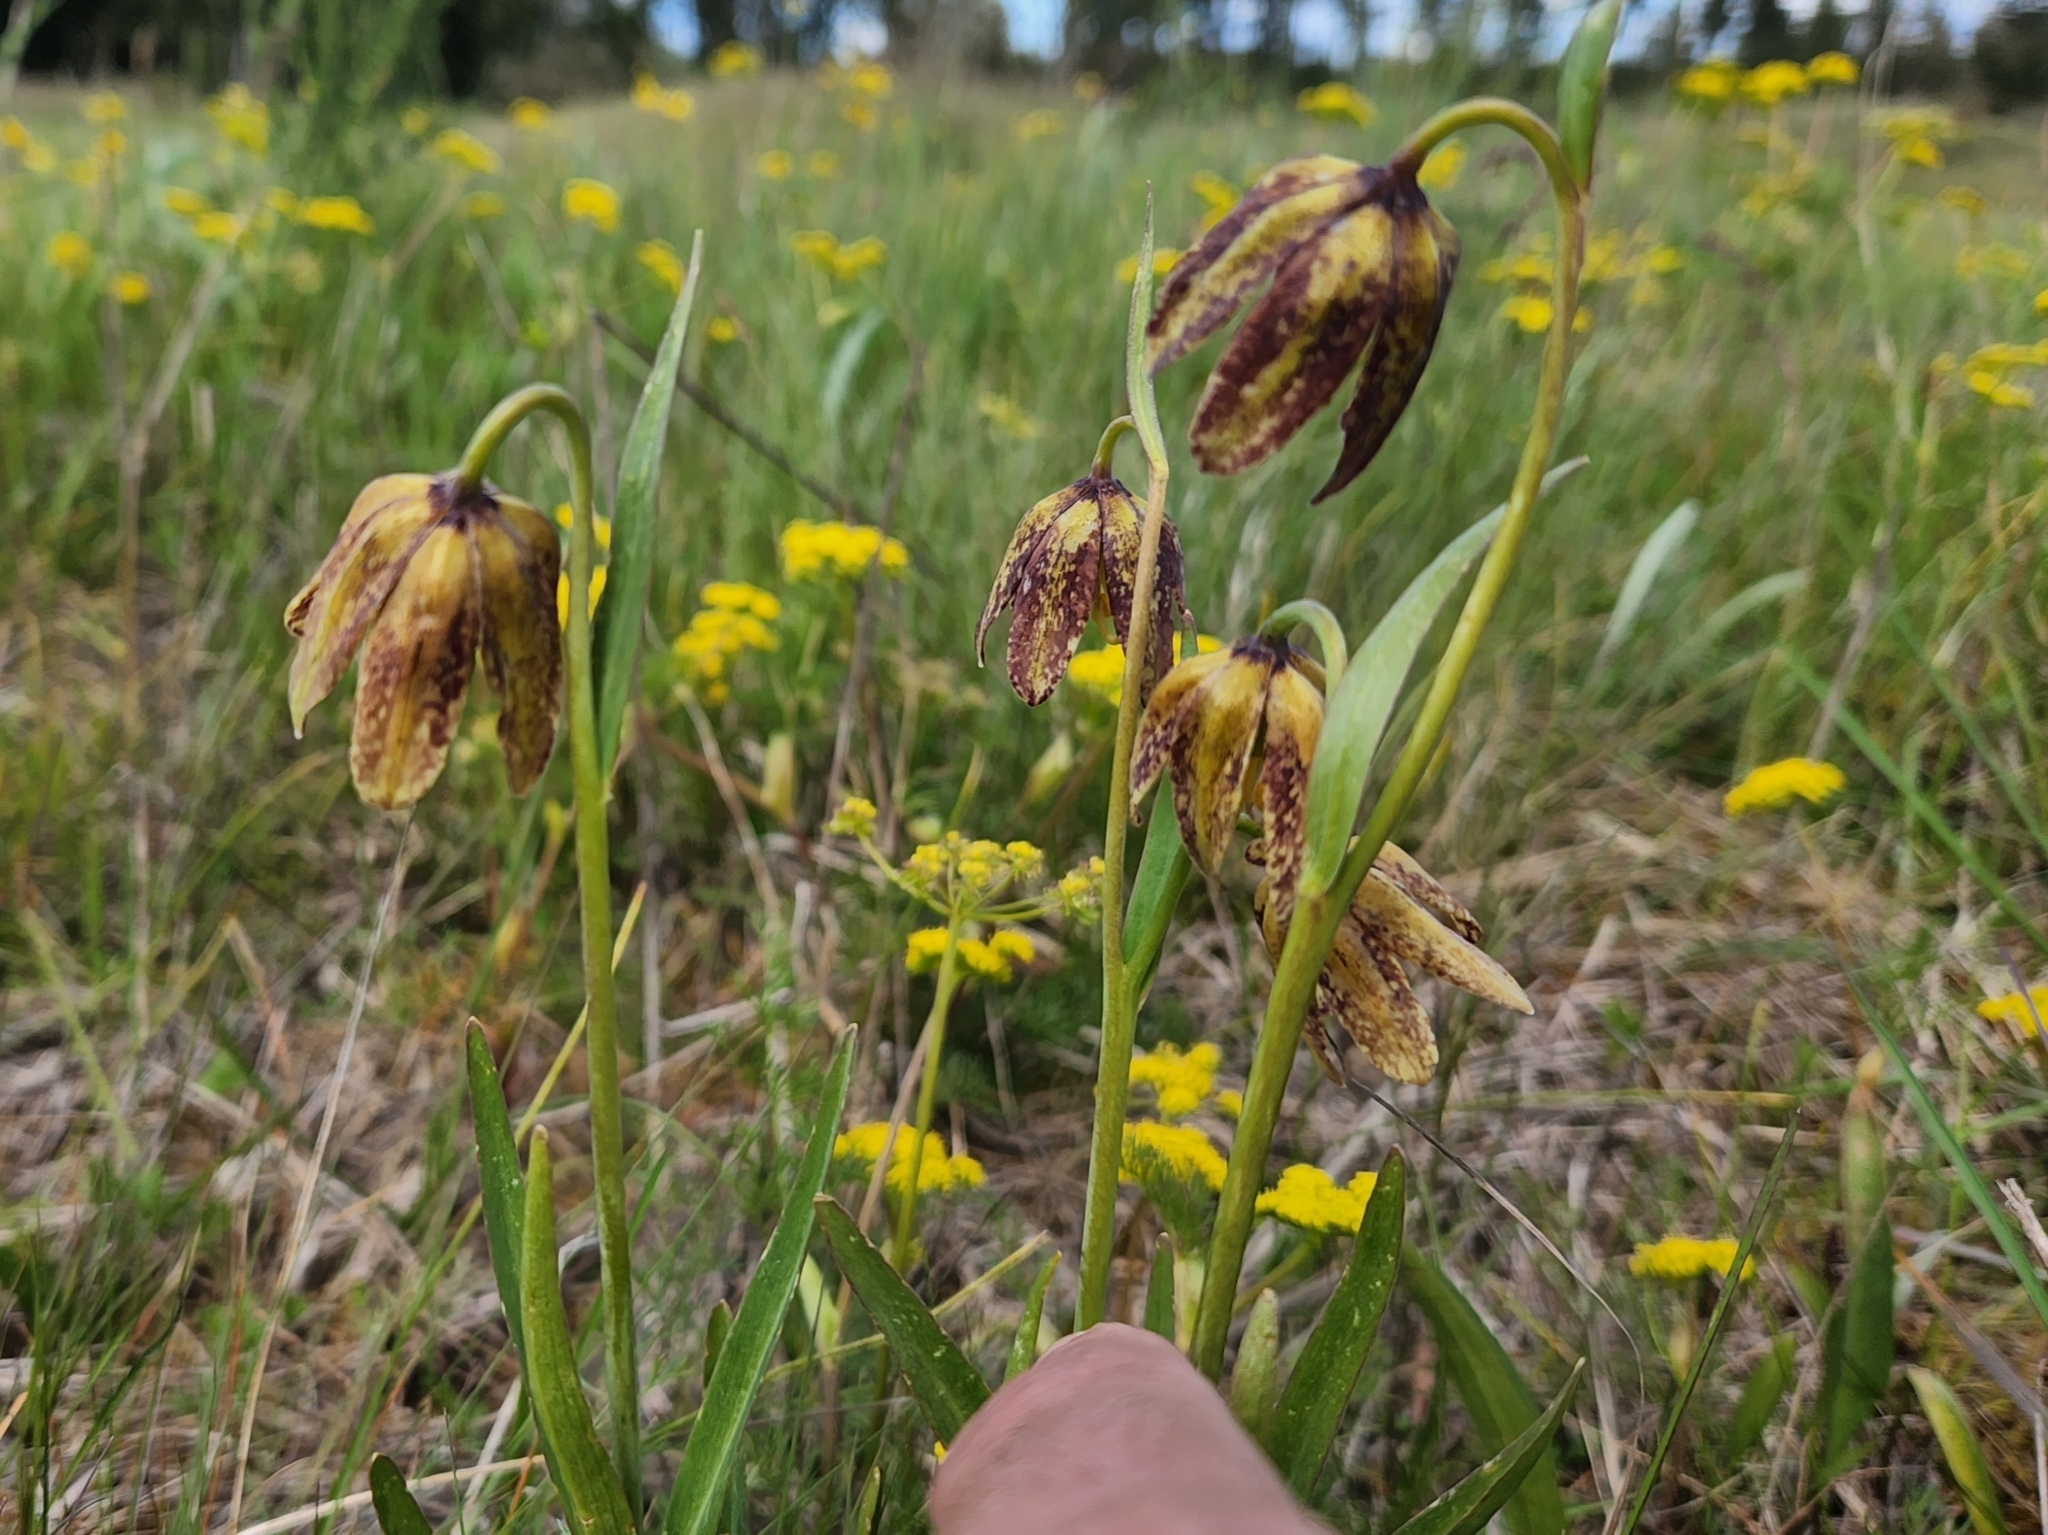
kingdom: Plantae
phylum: Tracheophyta
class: Liliopsida
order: Liliales
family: Liliaceae
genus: Fritillaria
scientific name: Fritillaria affinis
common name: Ojai fritillary
